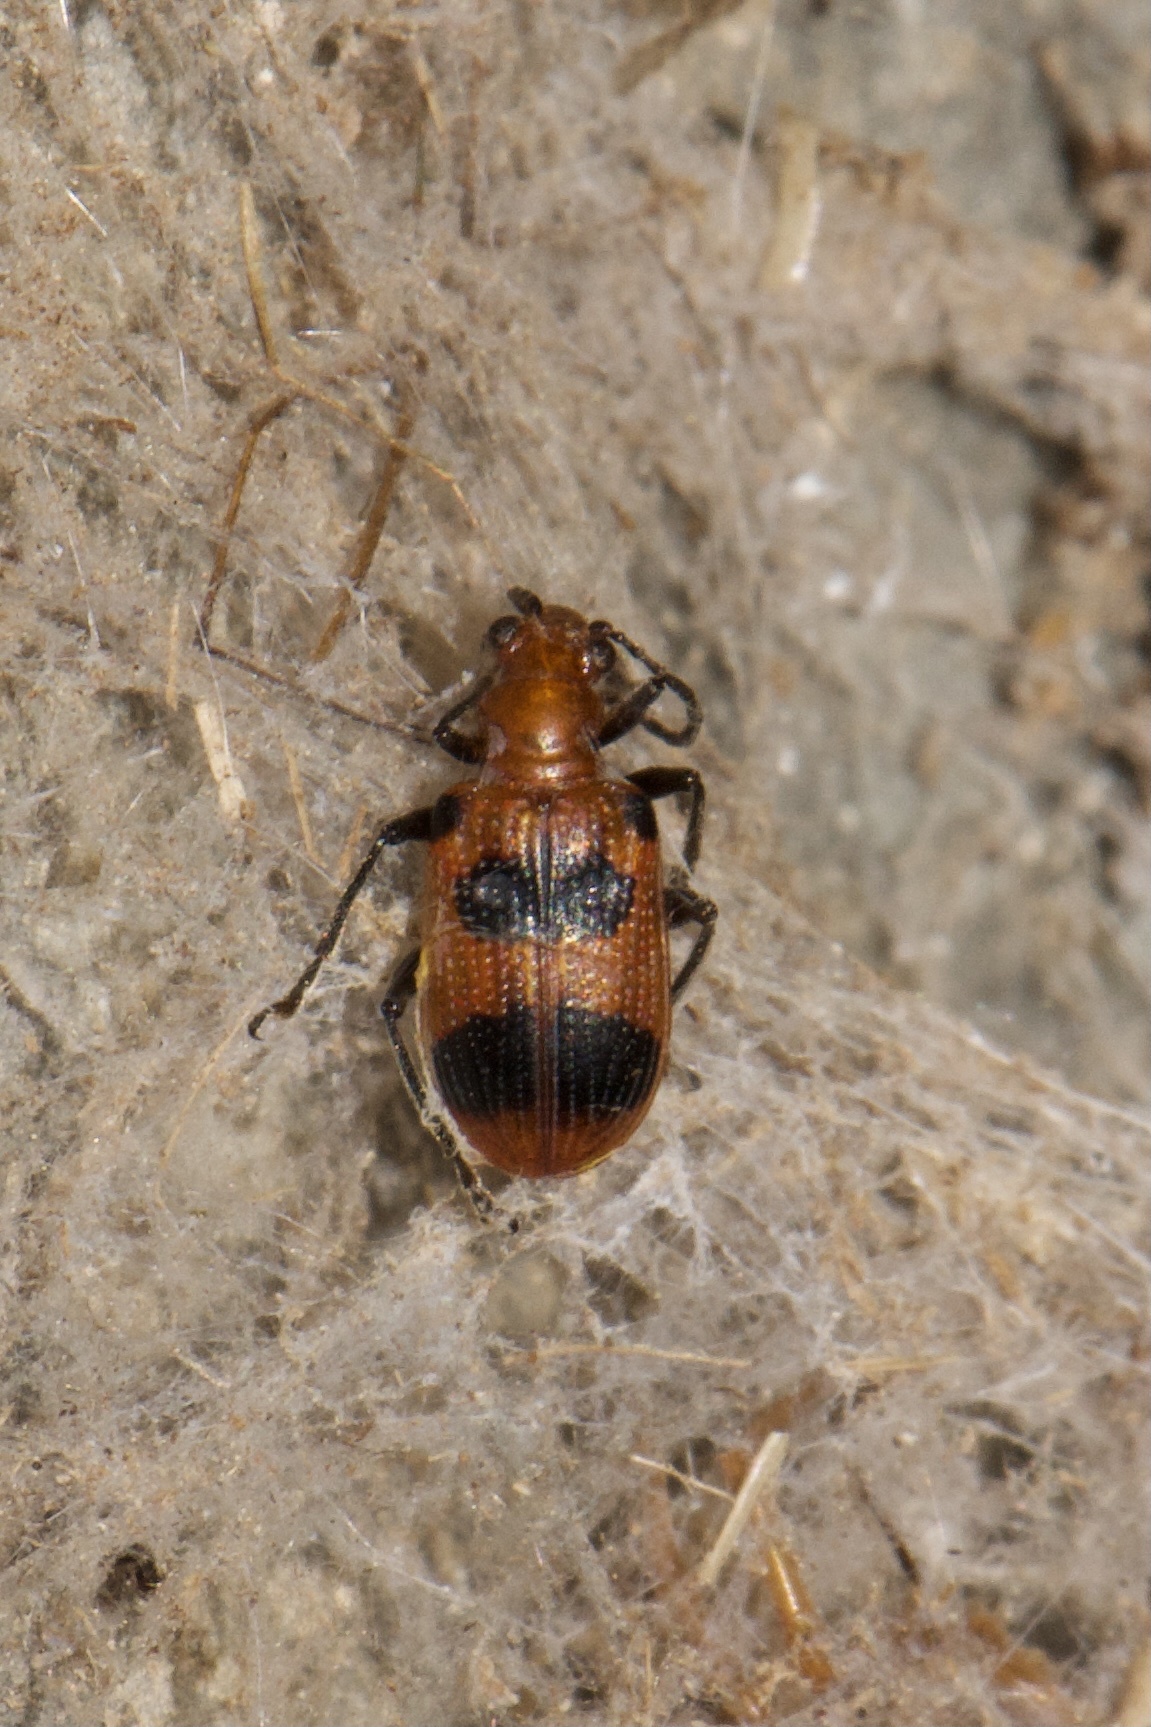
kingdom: Animalia
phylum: Arthropoda
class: Insecta
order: Coleoptera
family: Chrysomelidae
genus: Neolema
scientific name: Neolema sexpunctata
